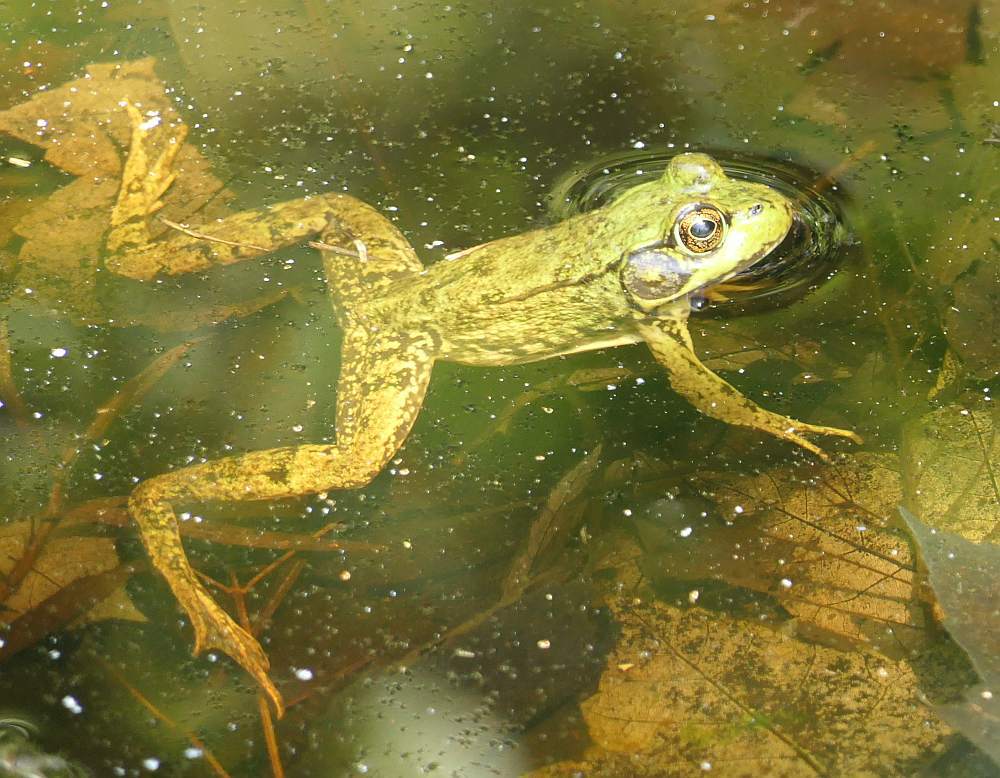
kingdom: Animalia
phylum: Chordata
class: Amphibia
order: Anura
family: Ranidae
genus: Lithobates
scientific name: Lithobates clamitans
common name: Green frog
